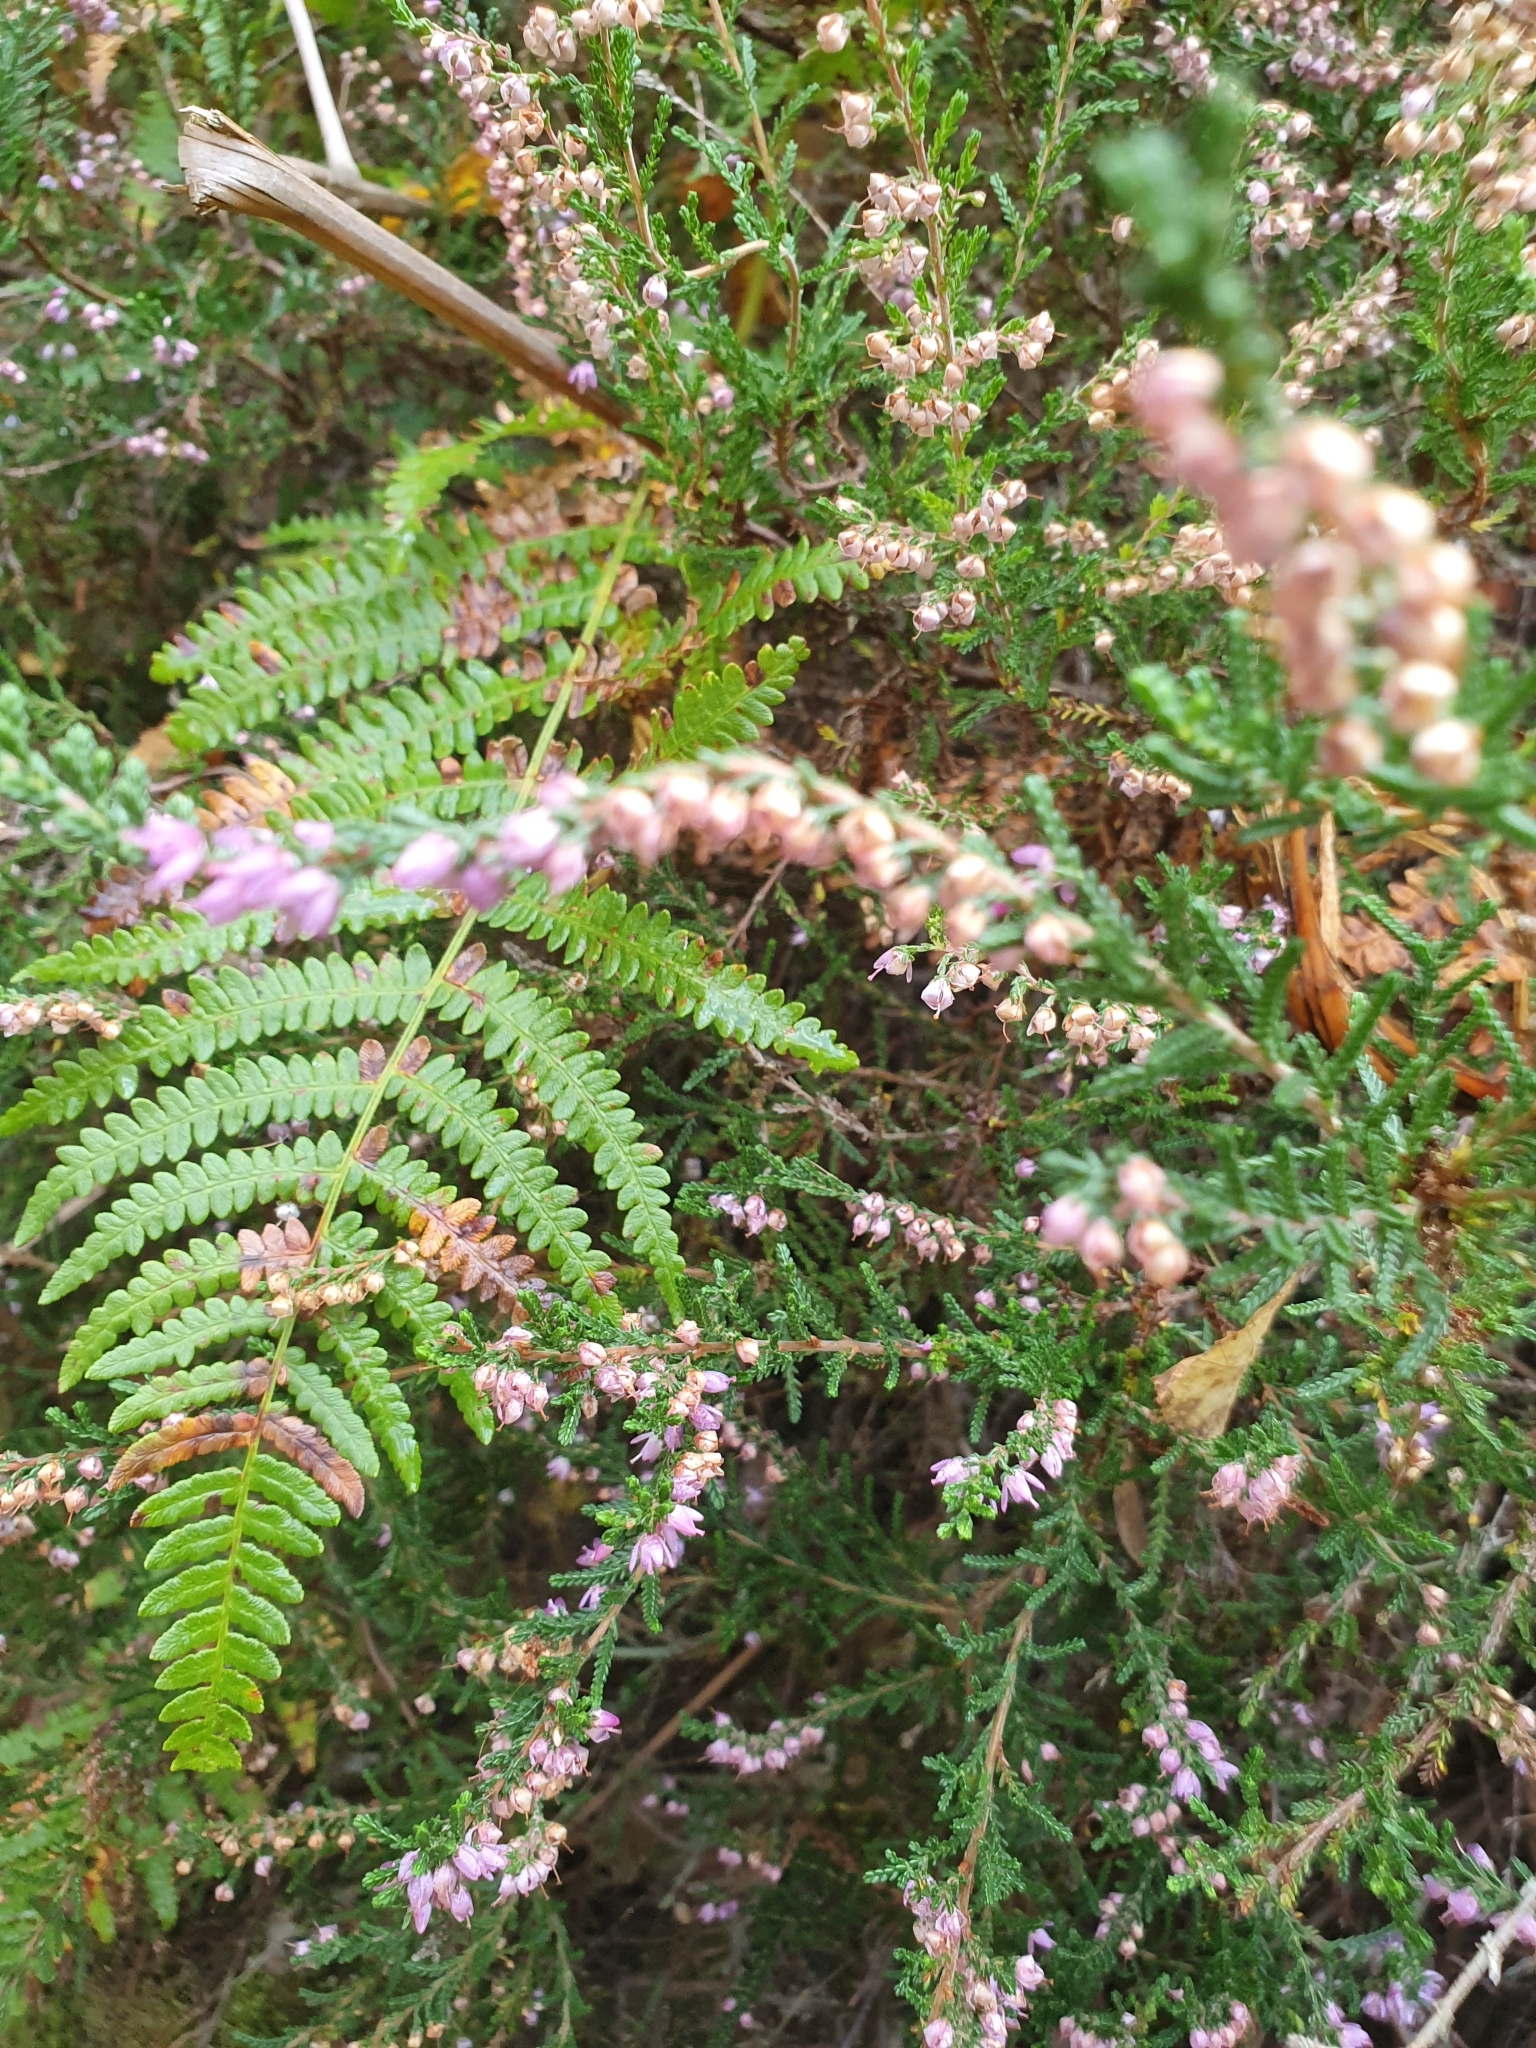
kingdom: Plantae
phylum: Tracheophyta
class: Magnoliopsida
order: Ericales
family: Ericaceae
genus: Calluna
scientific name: Calluna vulgaris
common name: Heather
